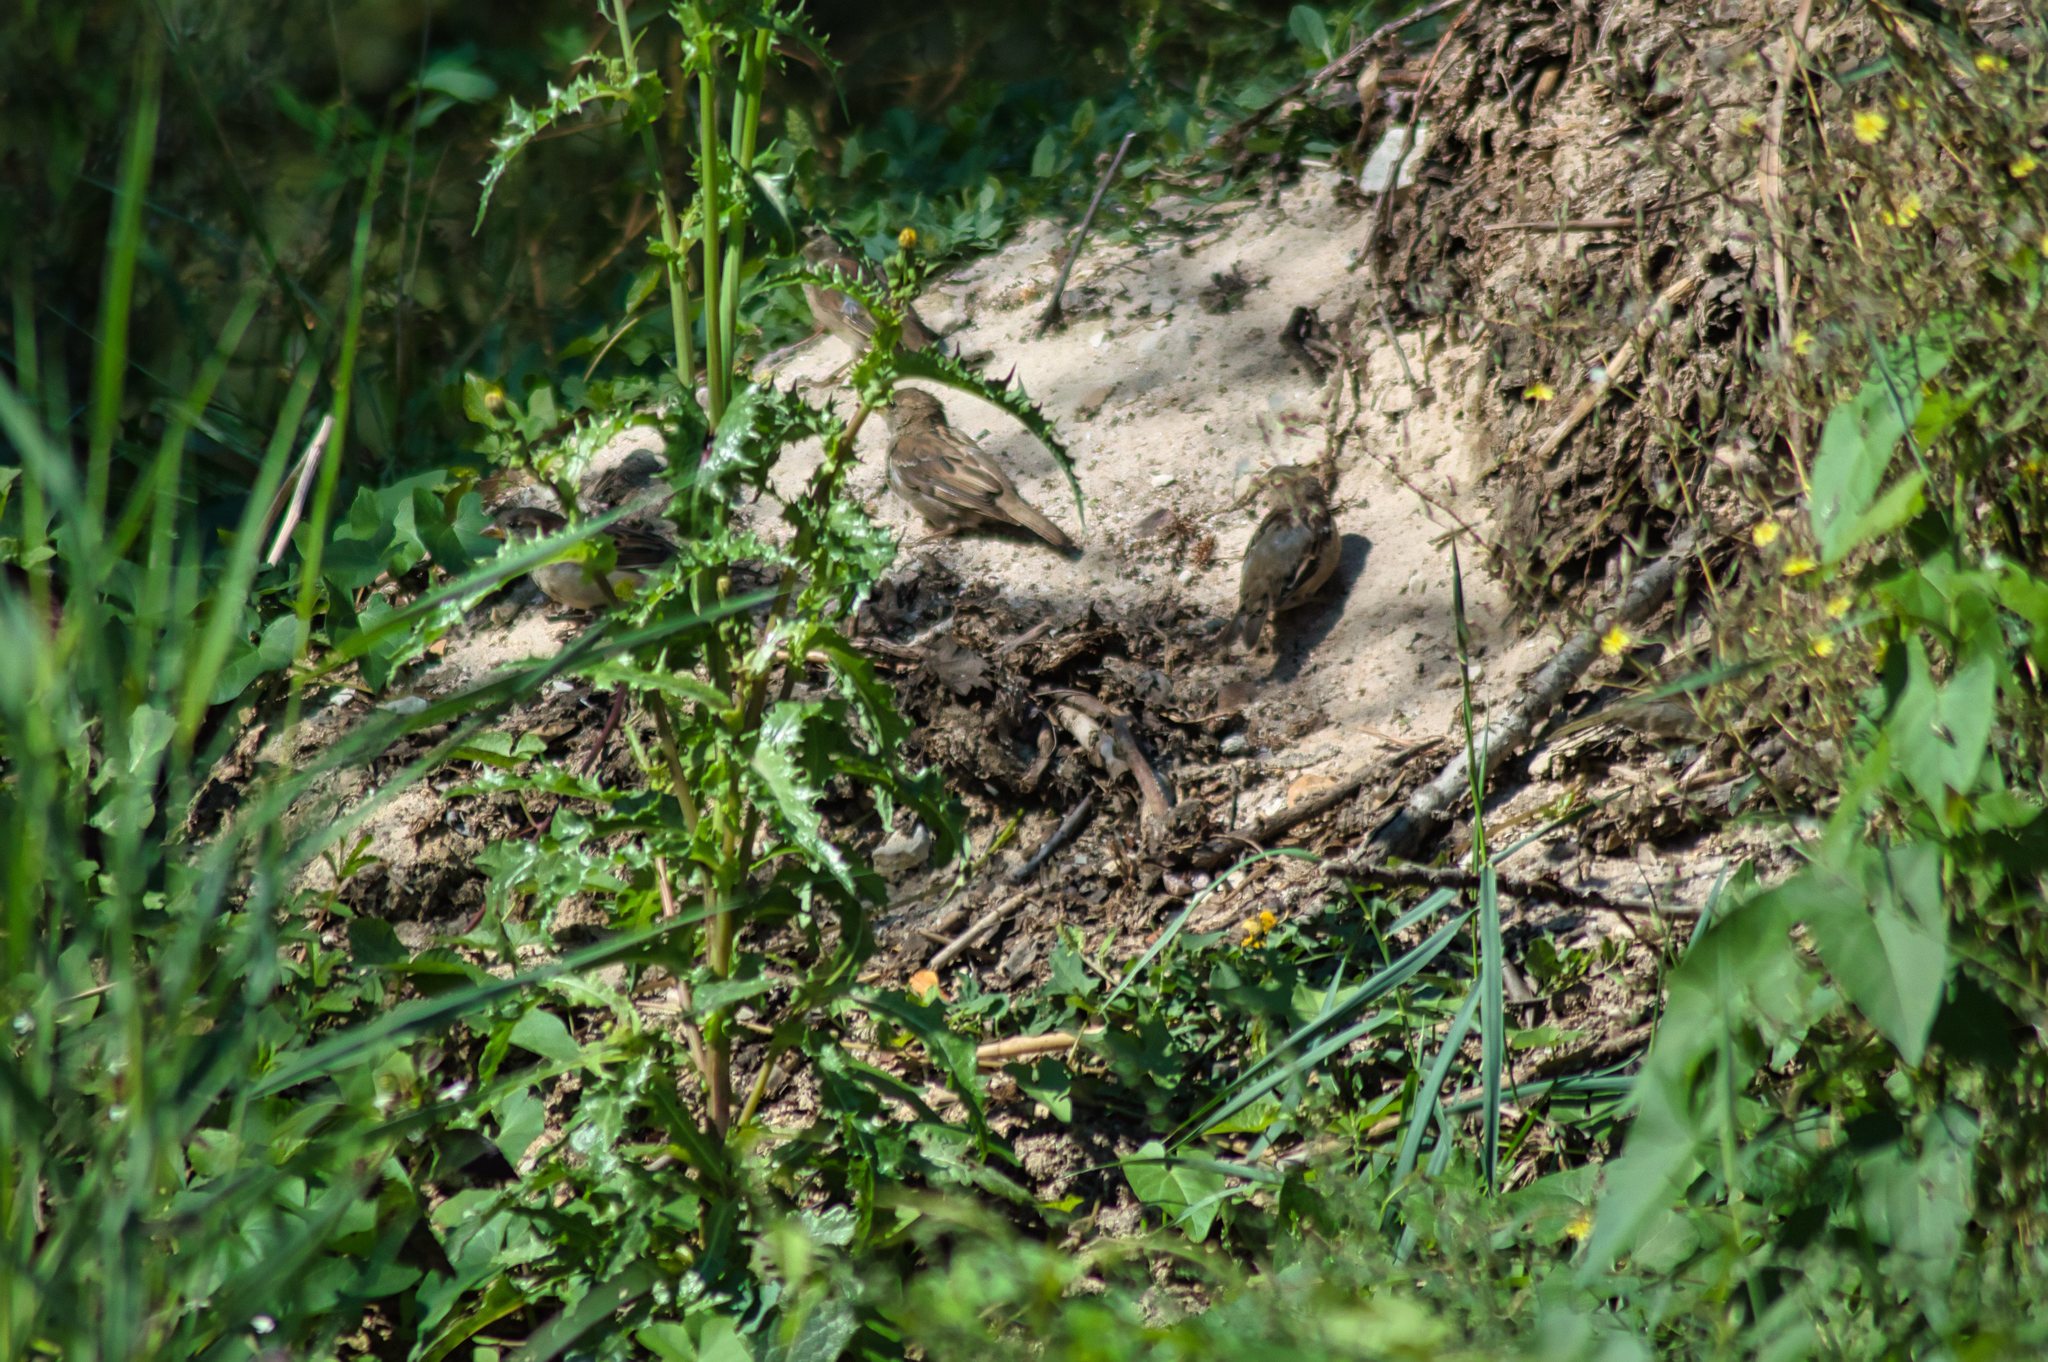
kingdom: Animalia
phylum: Chordata
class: Aves
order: Passeriformes
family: Passeridae
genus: Passer
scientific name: Passer domesticus
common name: House sparrow
